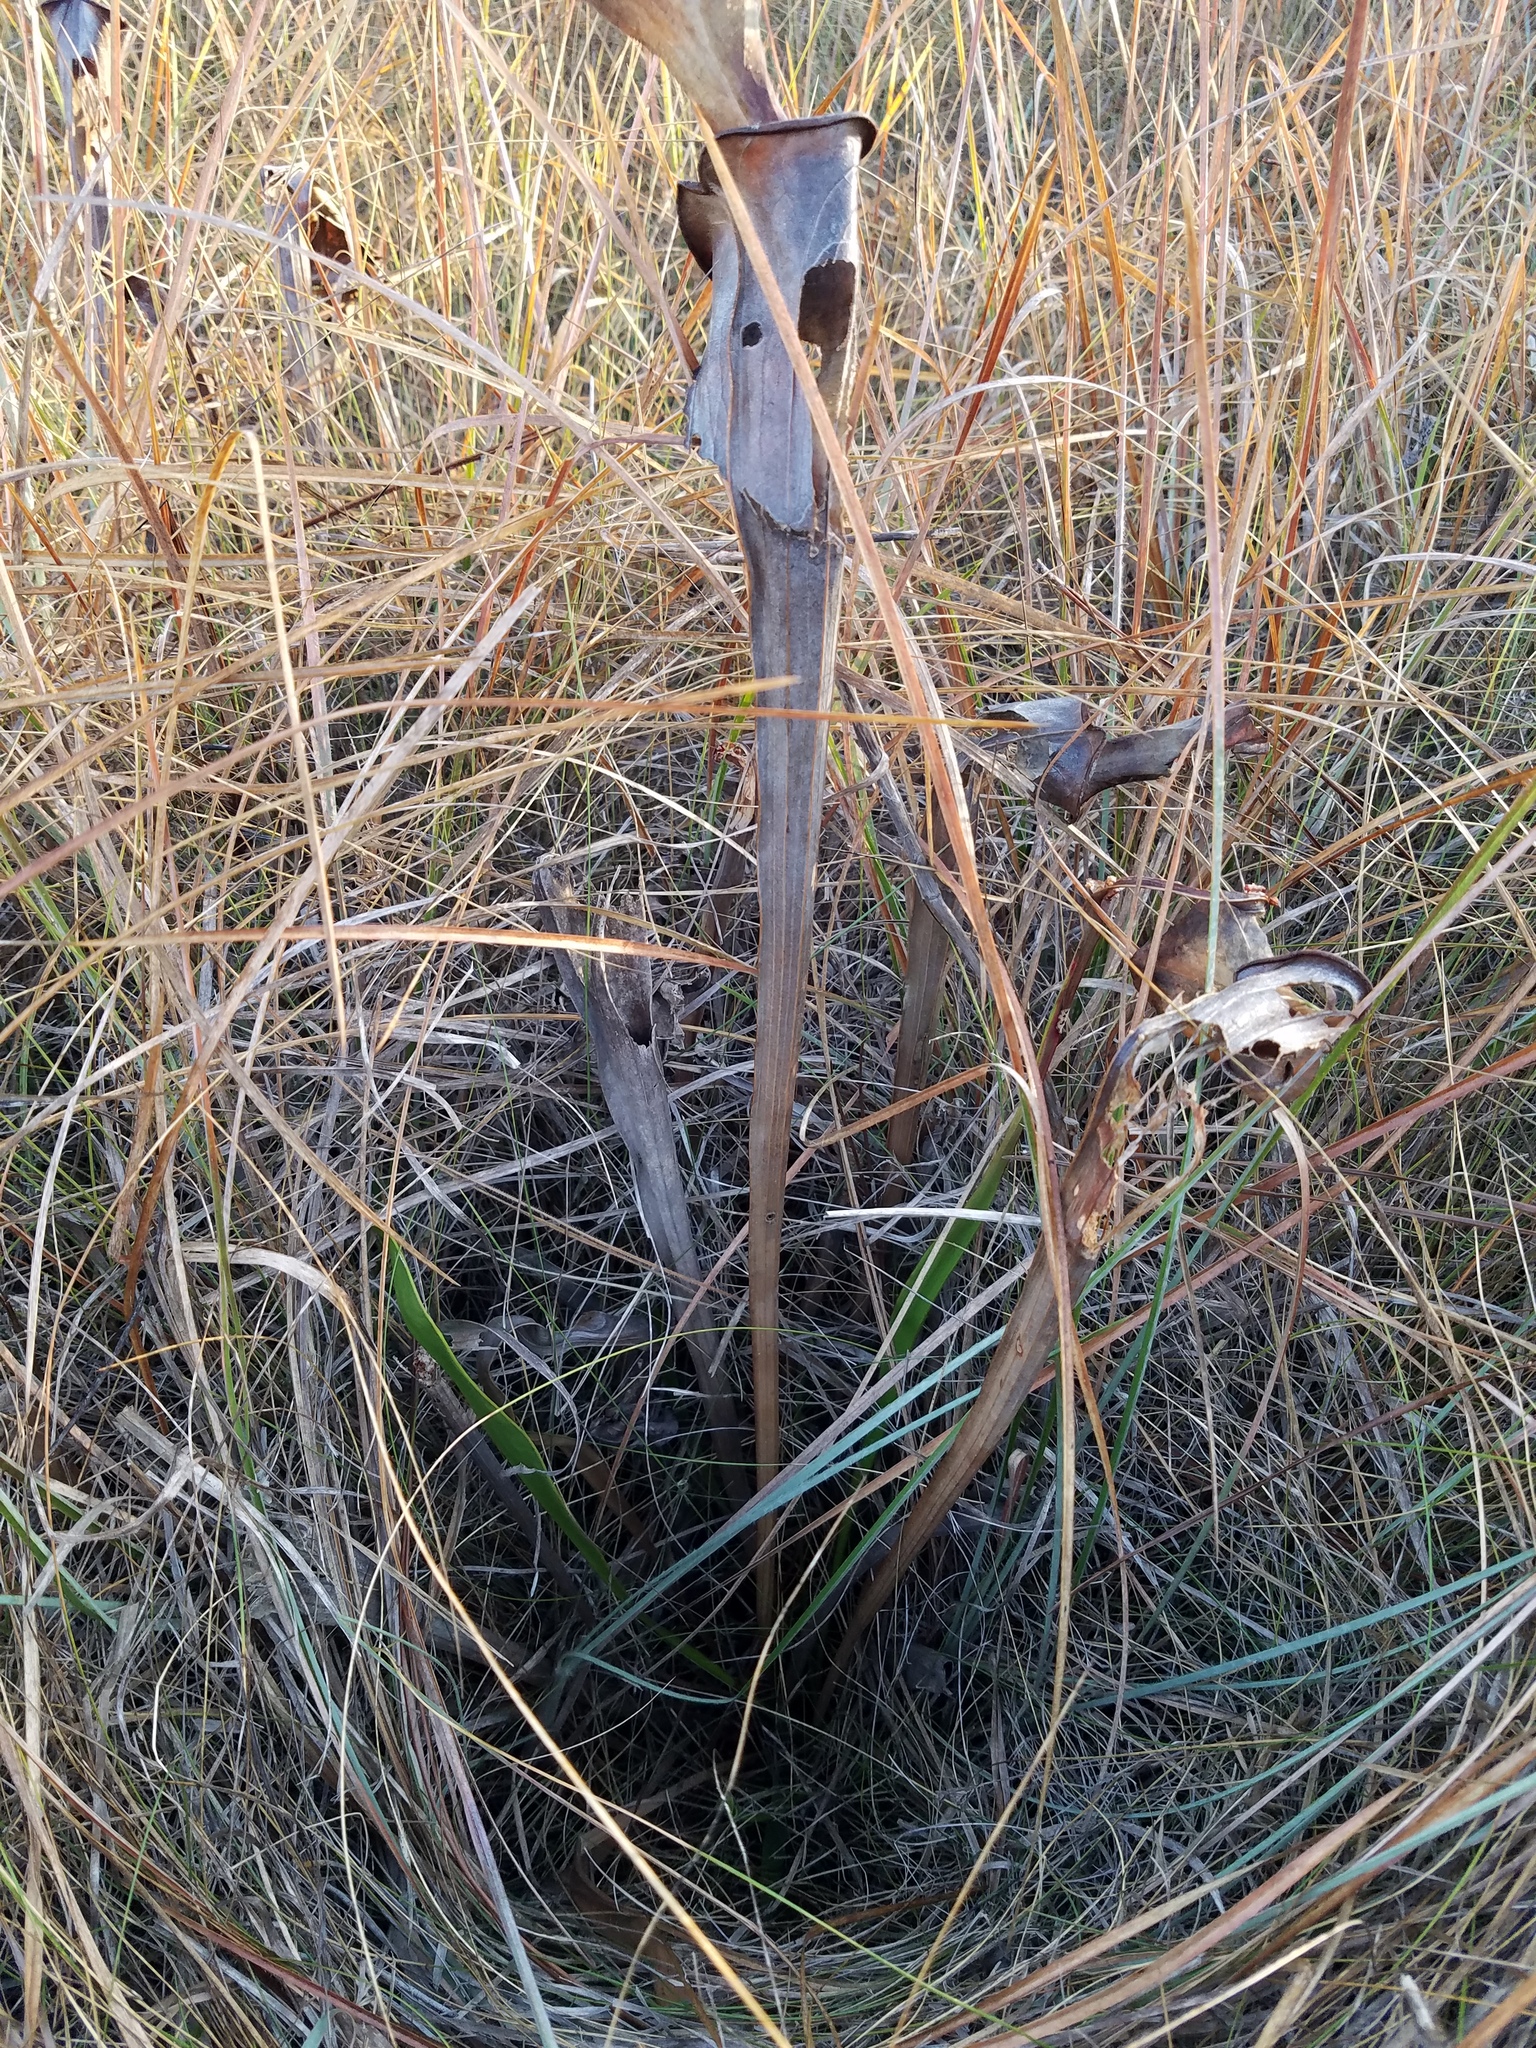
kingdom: Plantae
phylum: Tracheophyta
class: Magnoliopsida
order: Ericales
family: Sarraceniaceae
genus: Sarracenia
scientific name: Sarracenia flava
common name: Trumpets
